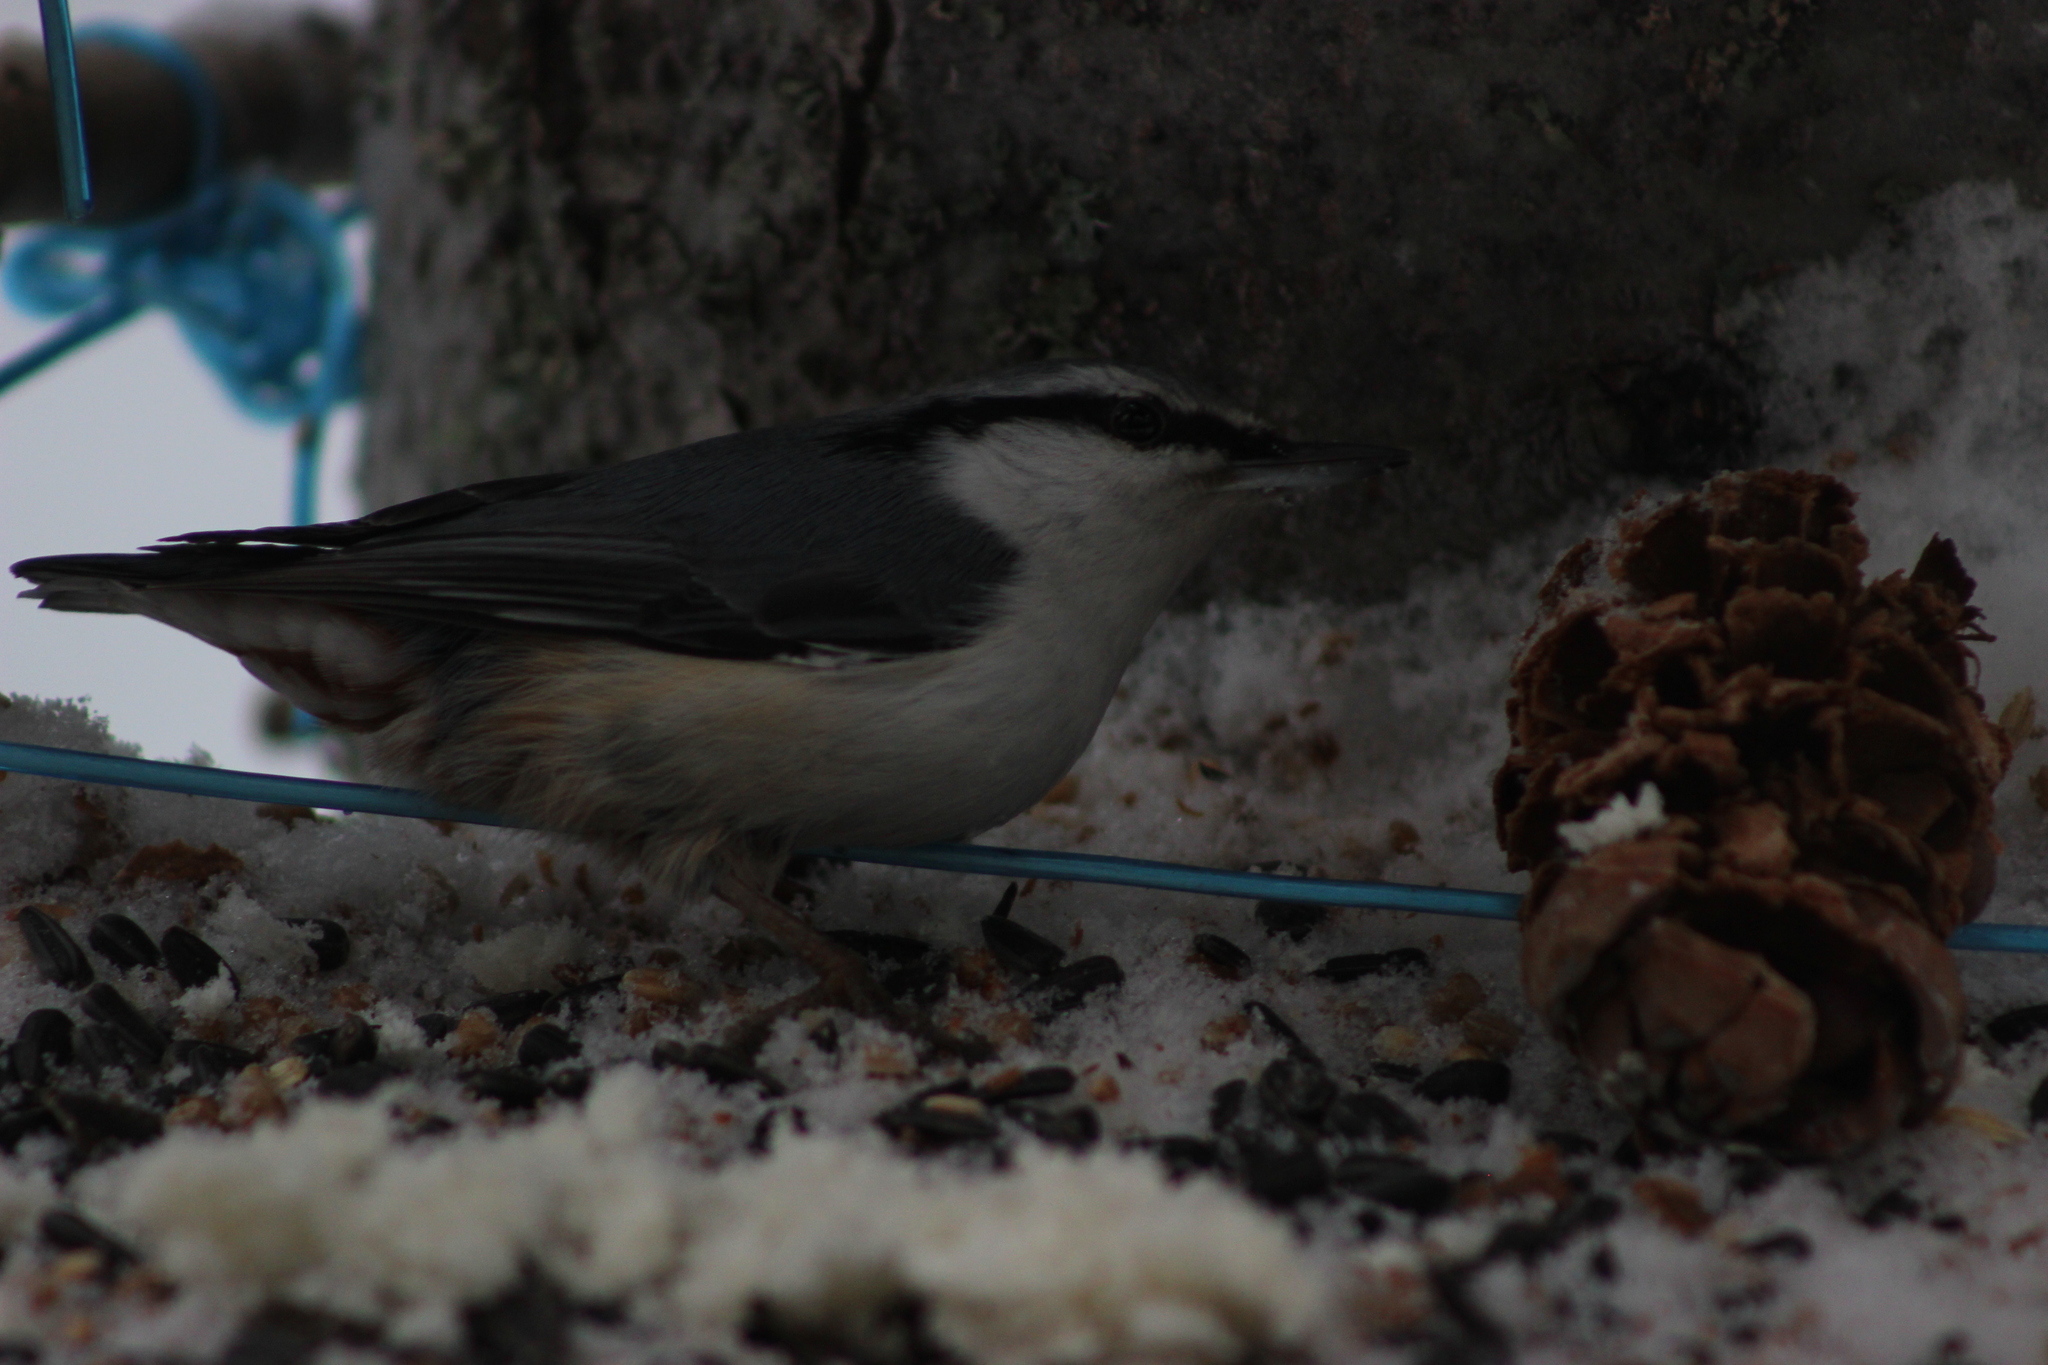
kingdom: Animalia
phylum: Chordata
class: Aves
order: Passeriformes
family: Sittidae
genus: Sitta
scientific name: Sitta europaea
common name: Eurasian nuthatch
